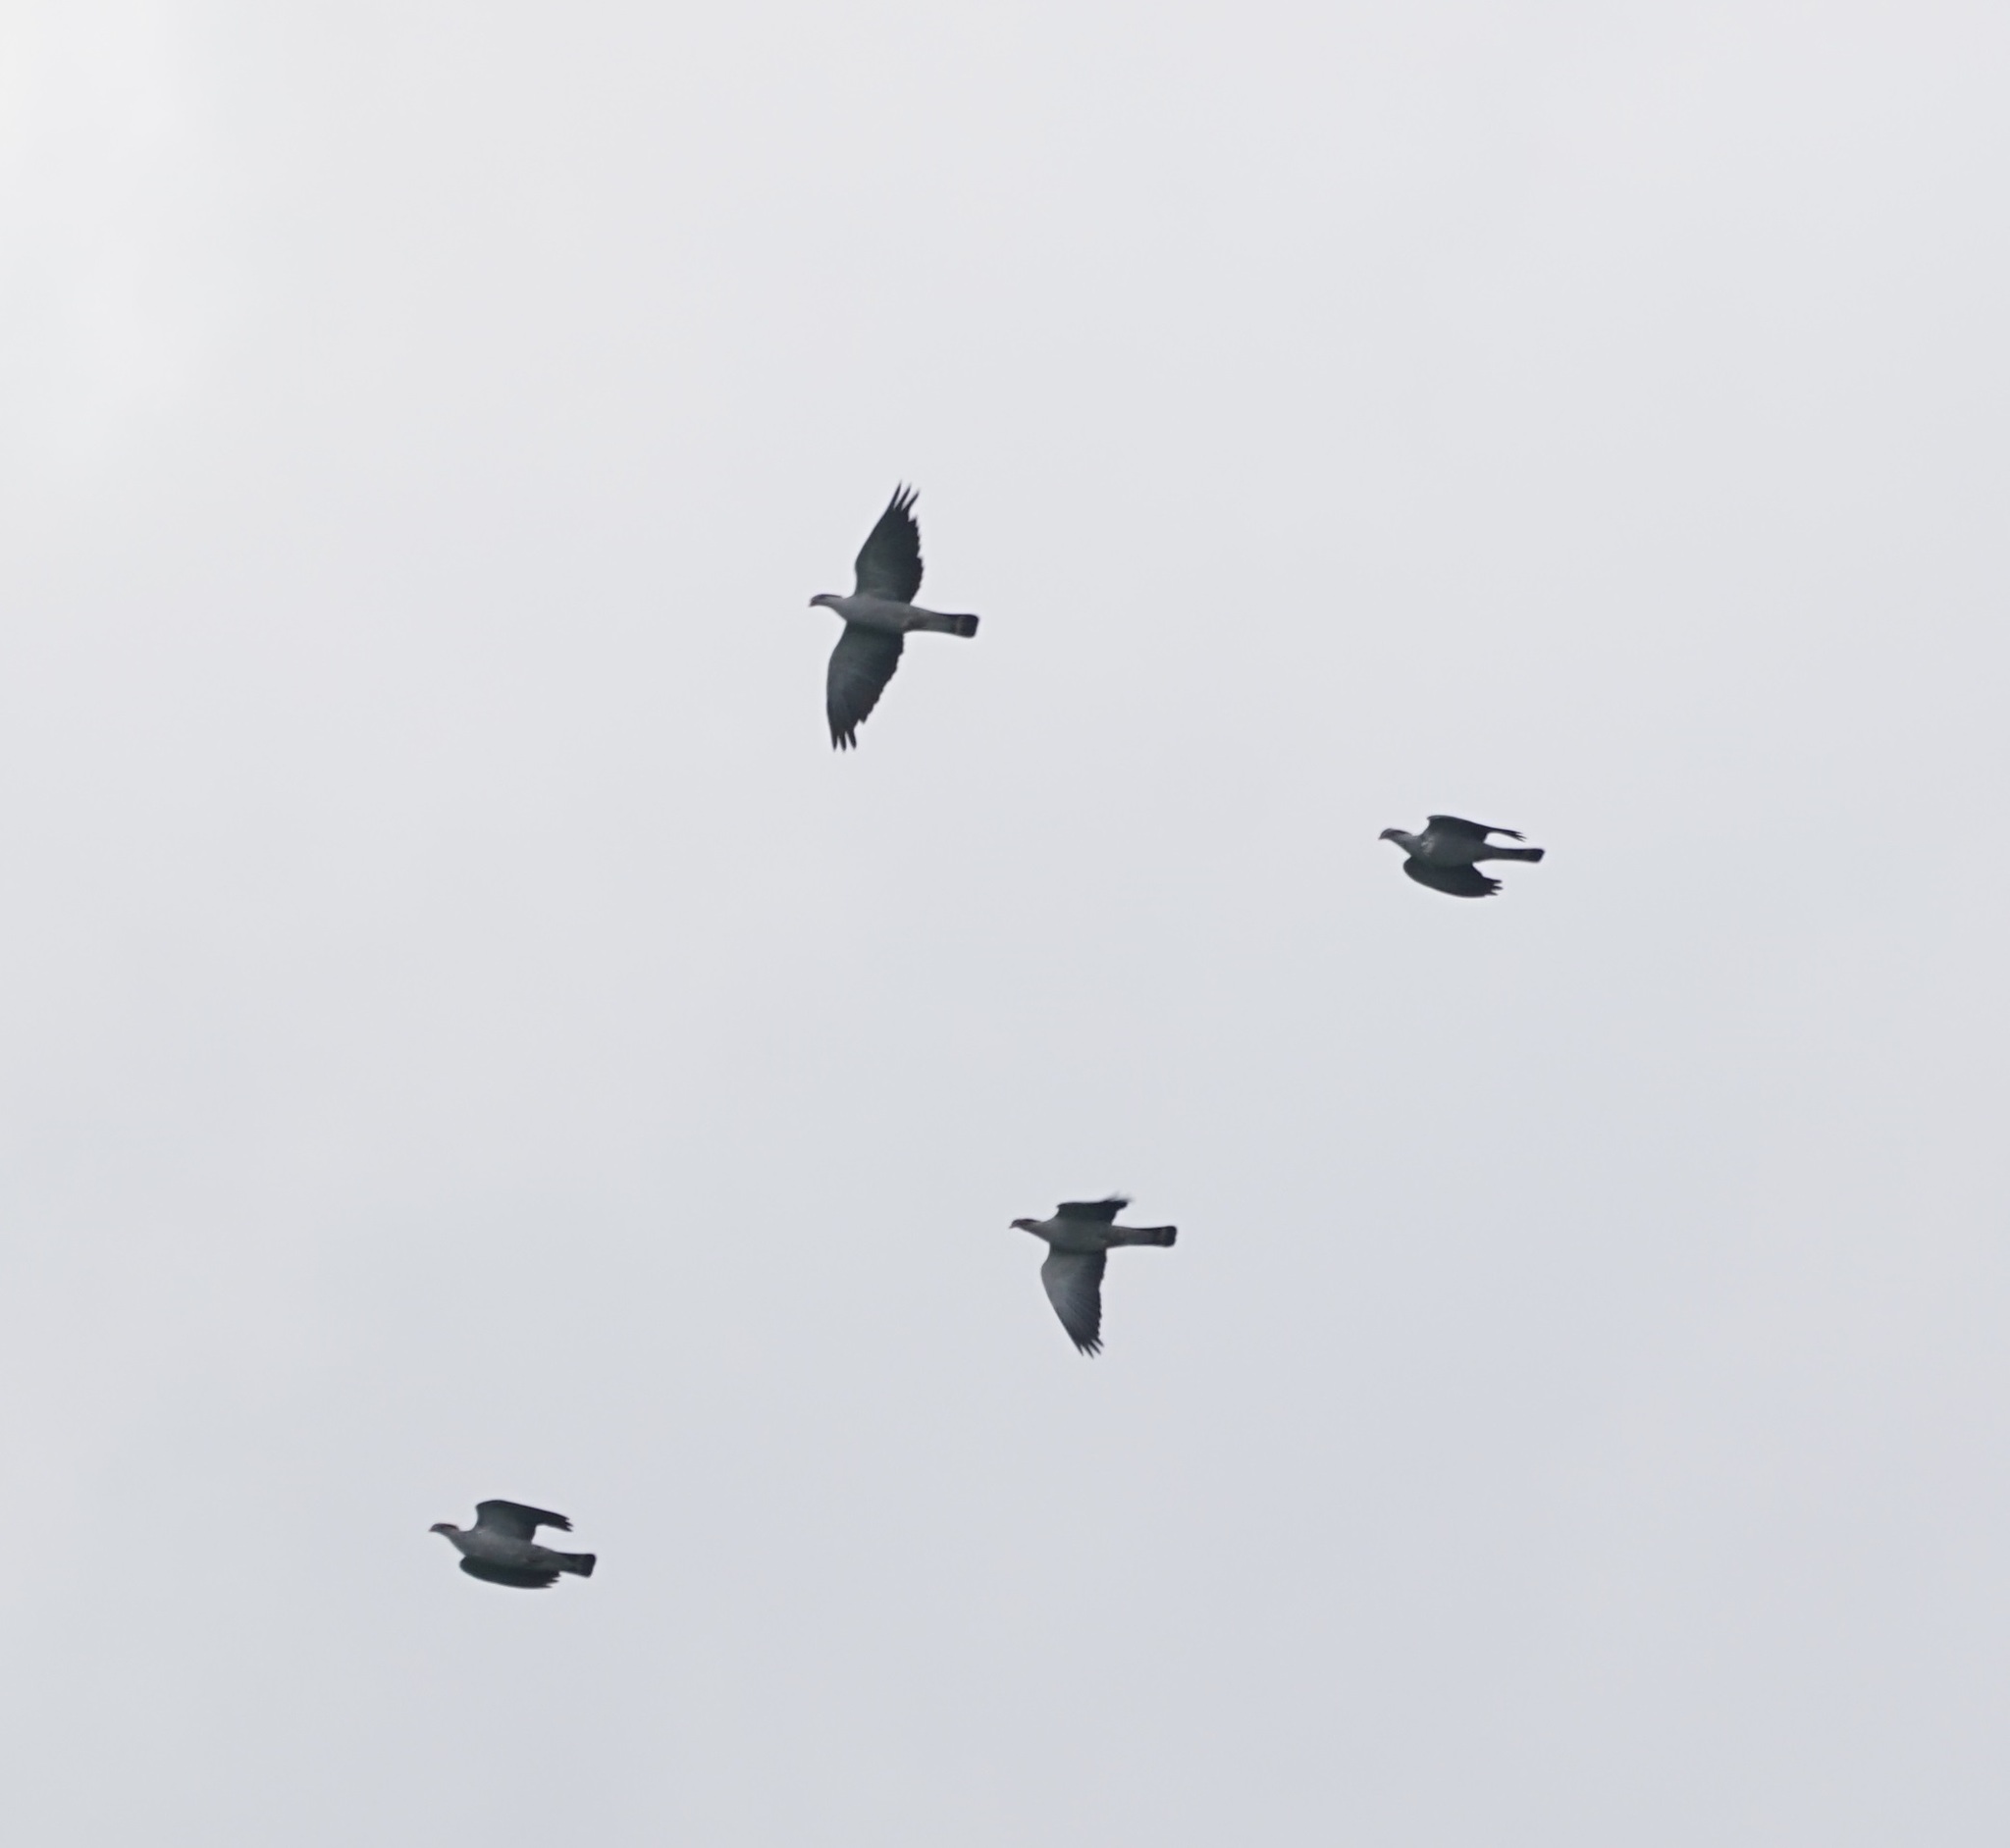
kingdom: Animalia
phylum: Chordata
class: Aves
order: Columbiformes
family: Columbidae
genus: Lopholaimus
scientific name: Lopholaimus antarcticus
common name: Topknot pigeon
